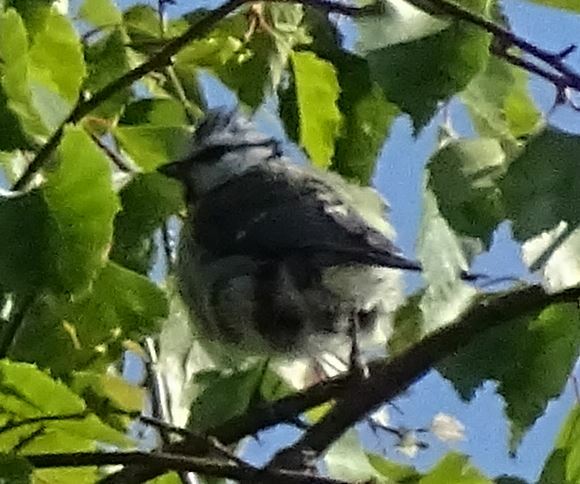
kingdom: Animalia
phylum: Chordata
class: Aves
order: Passeriformes
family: Paridae
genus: Cyanistes
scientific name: Cyanistes caeruleus
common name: Eurasian blue tit
